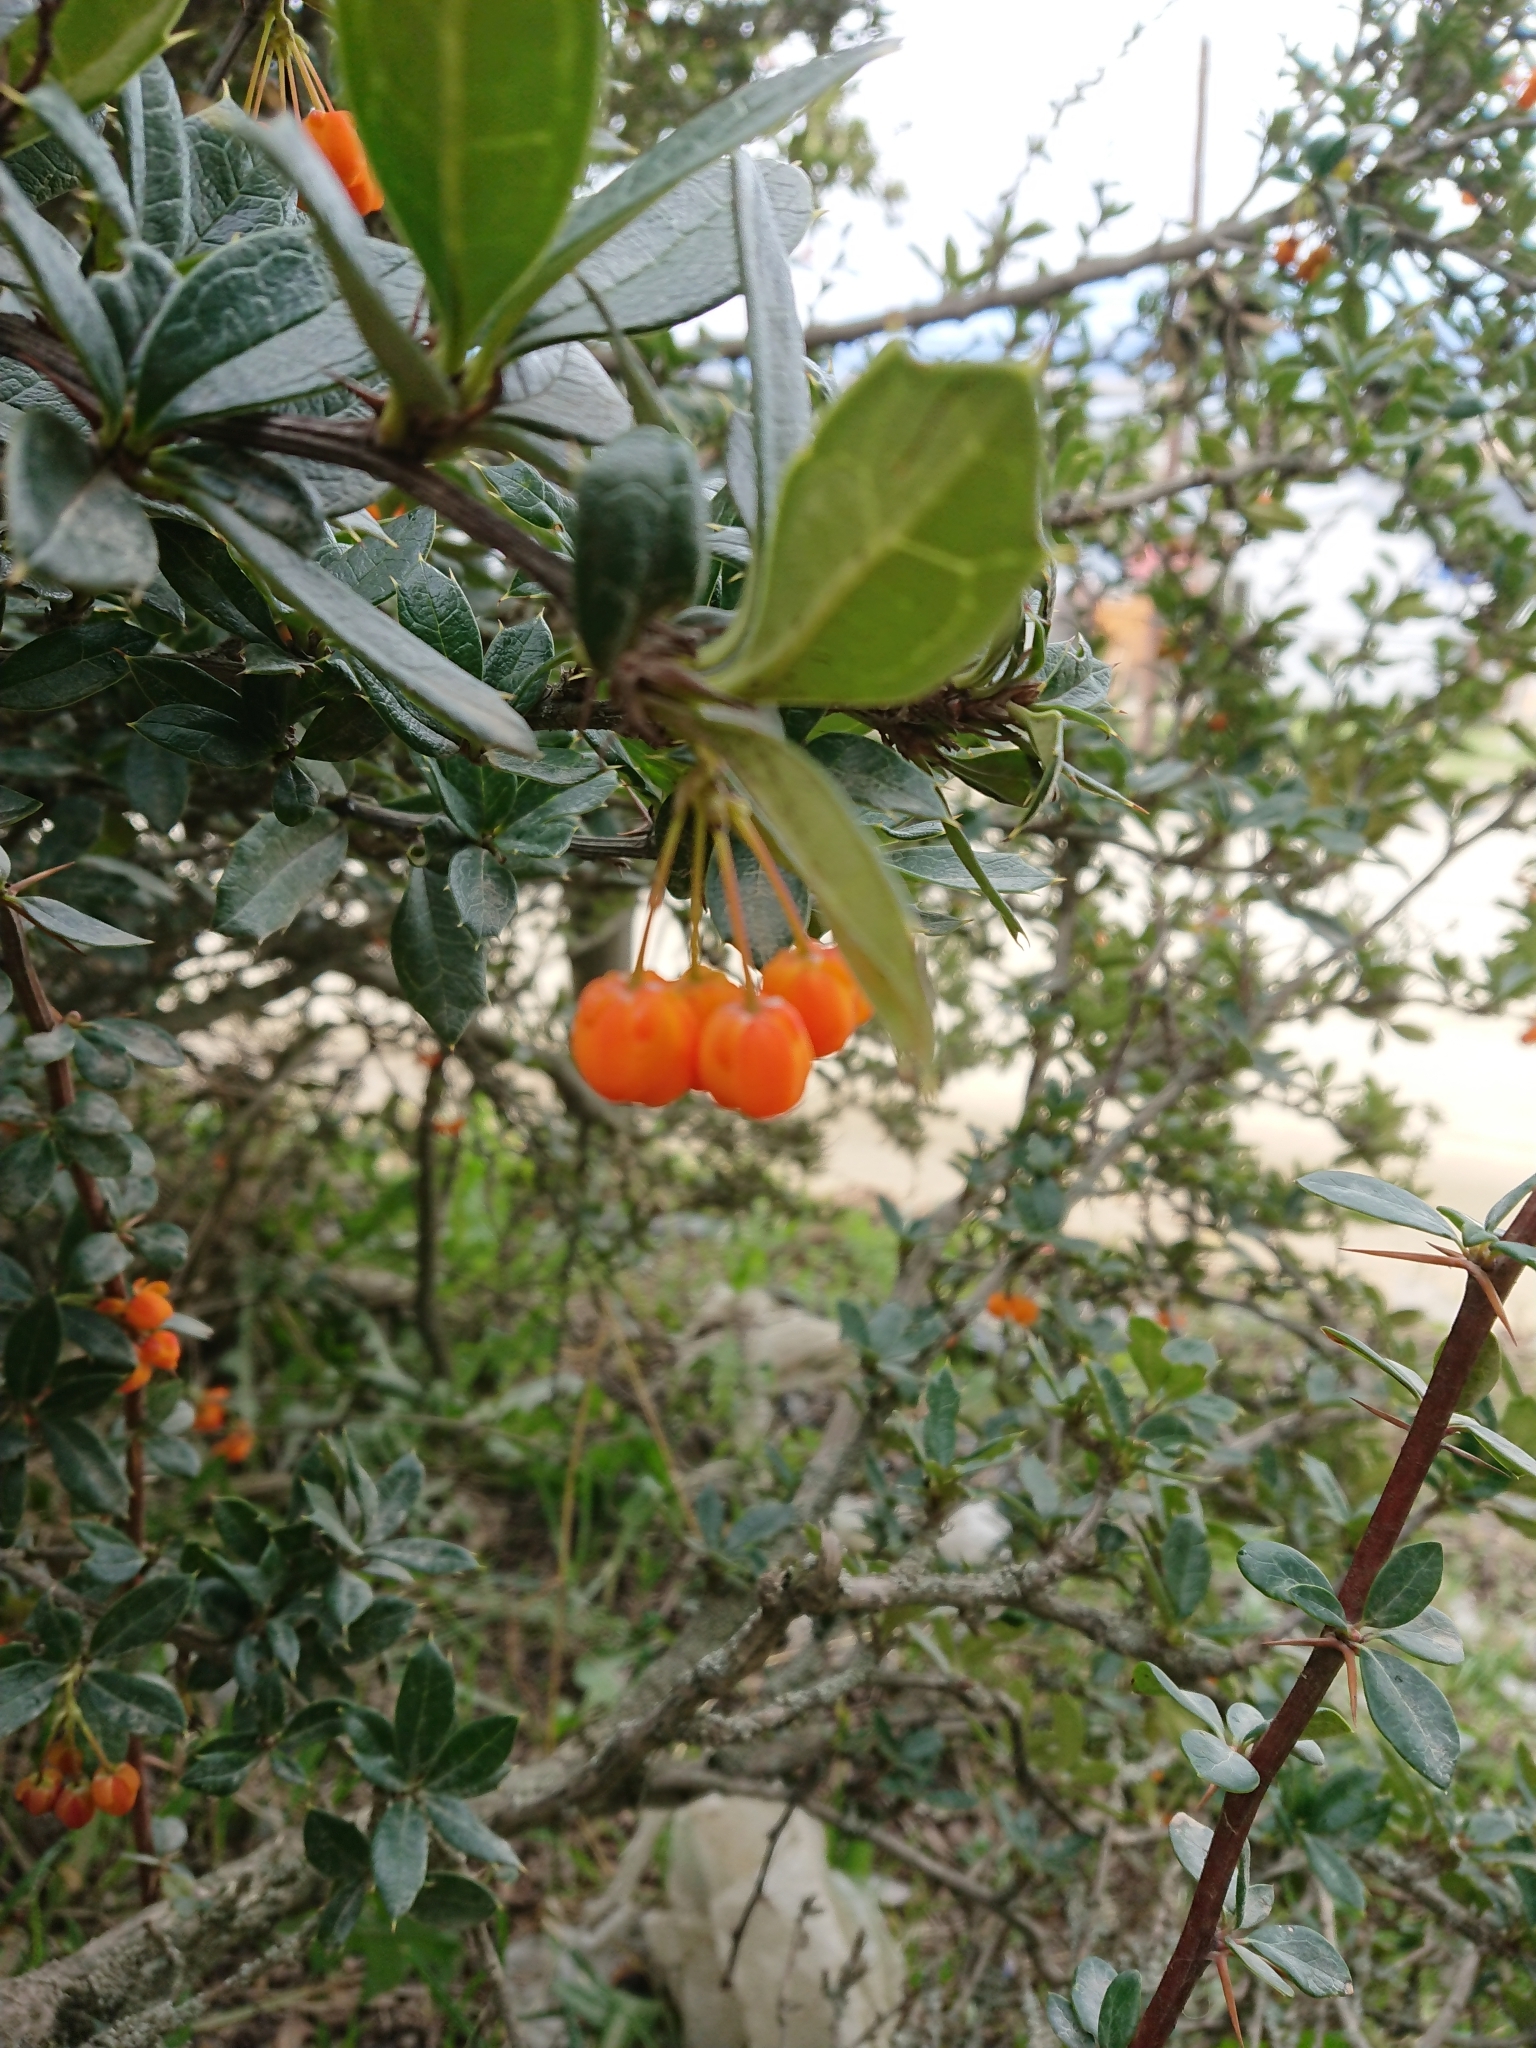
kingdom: Plantae
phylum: Tracheophyta
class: Magnoliopsida
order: Ranunculales
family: Berberidaceae
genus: Berberis
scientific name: Berberis ilicifolia
